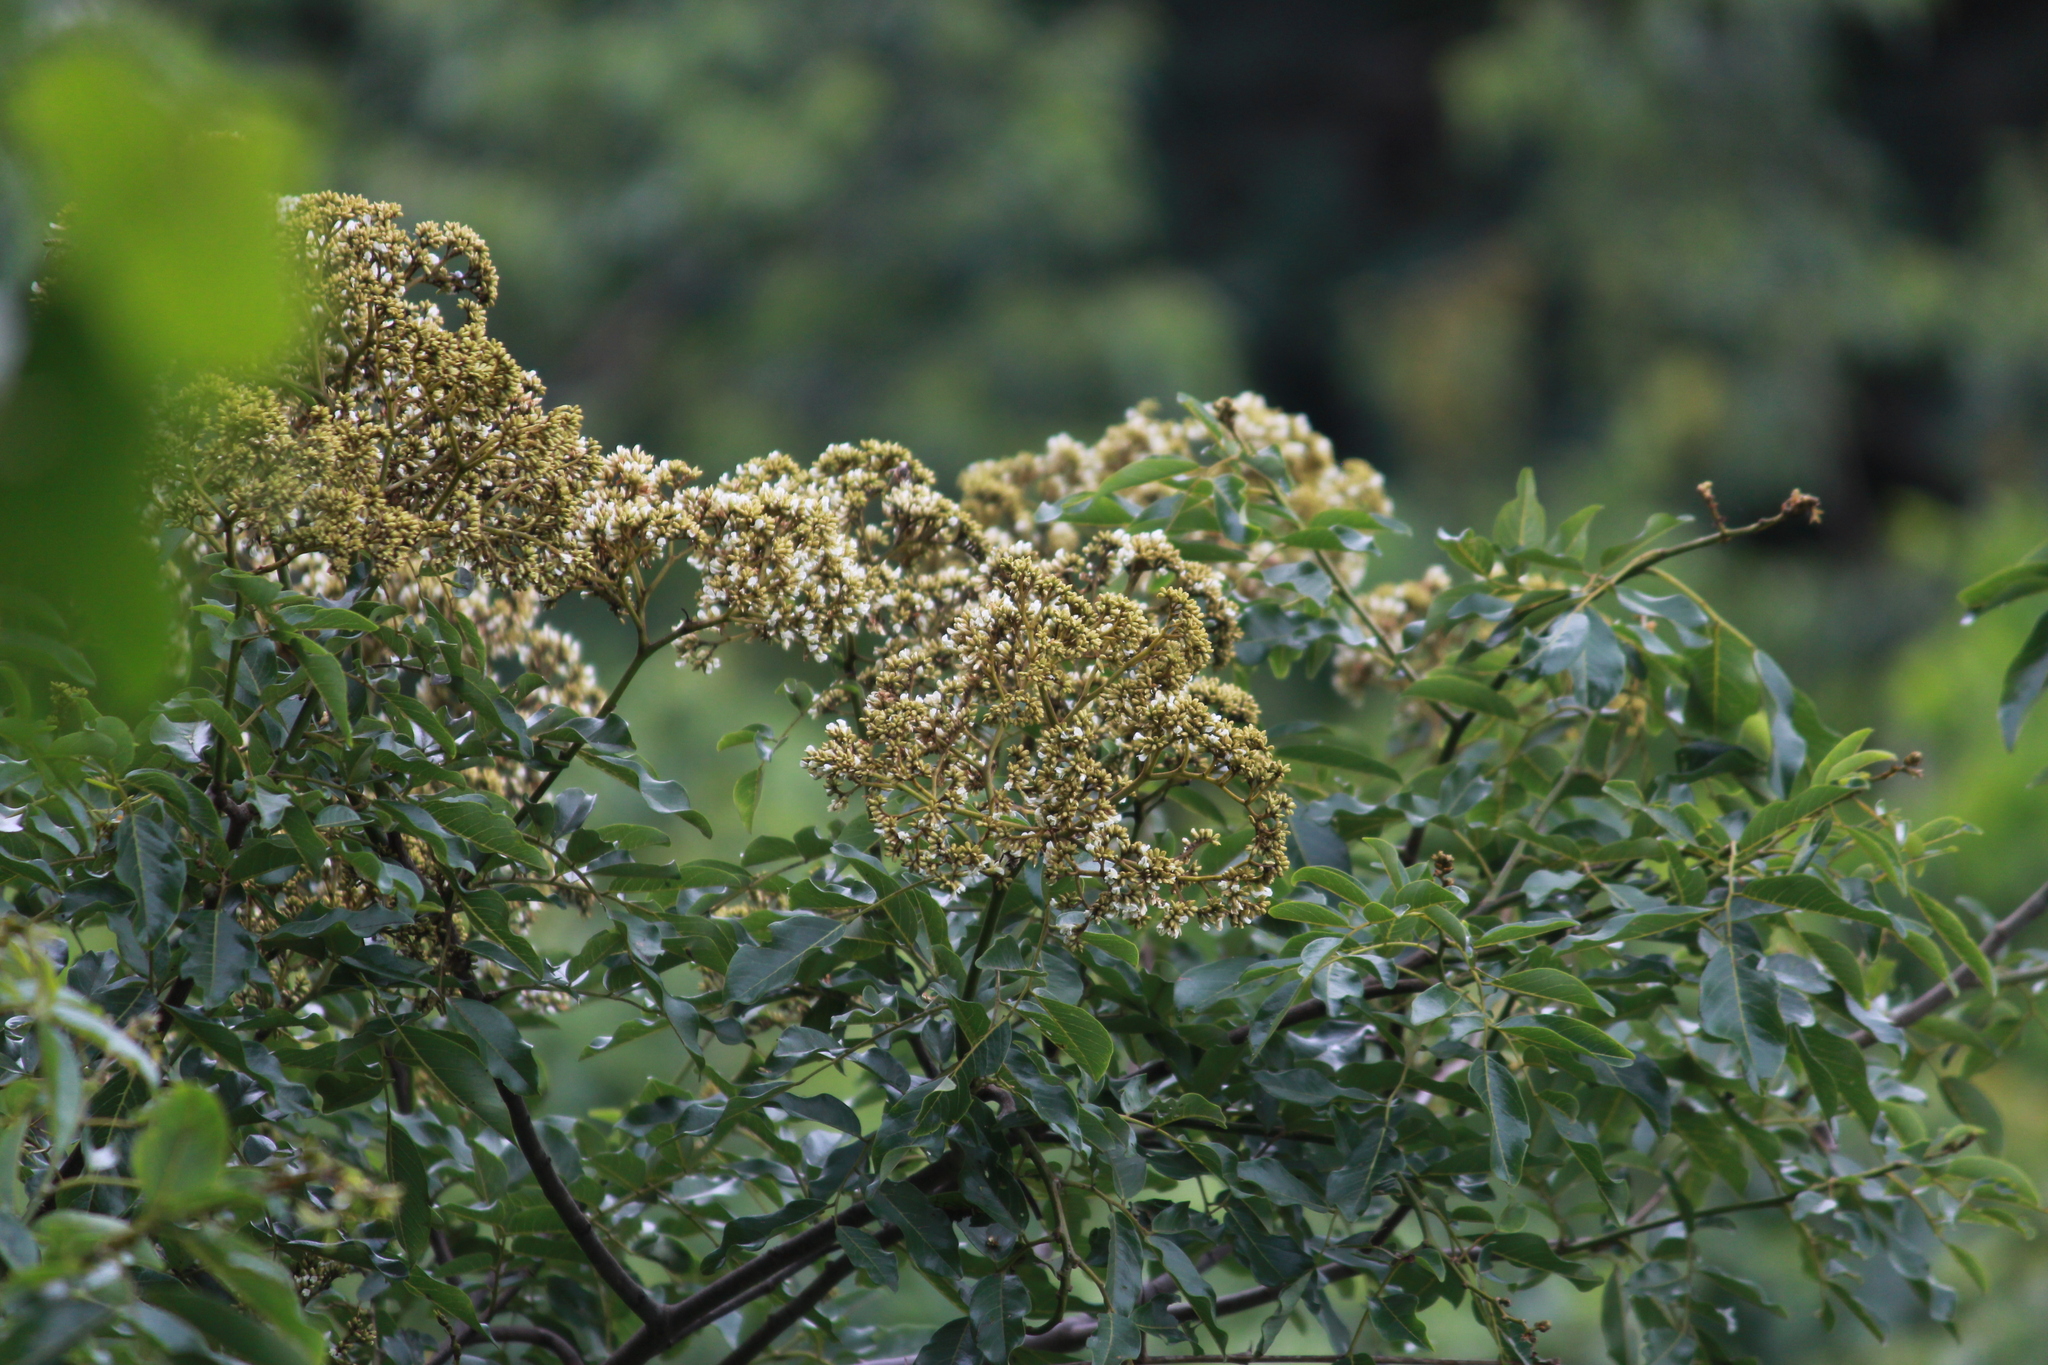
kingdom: Plantae
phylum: Tracheophyta
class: Magnoliopsida
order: Fabales
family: Fabaceae
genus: Dalbergia
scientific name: Dalbergia obovata
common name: Climbing flat-bean
